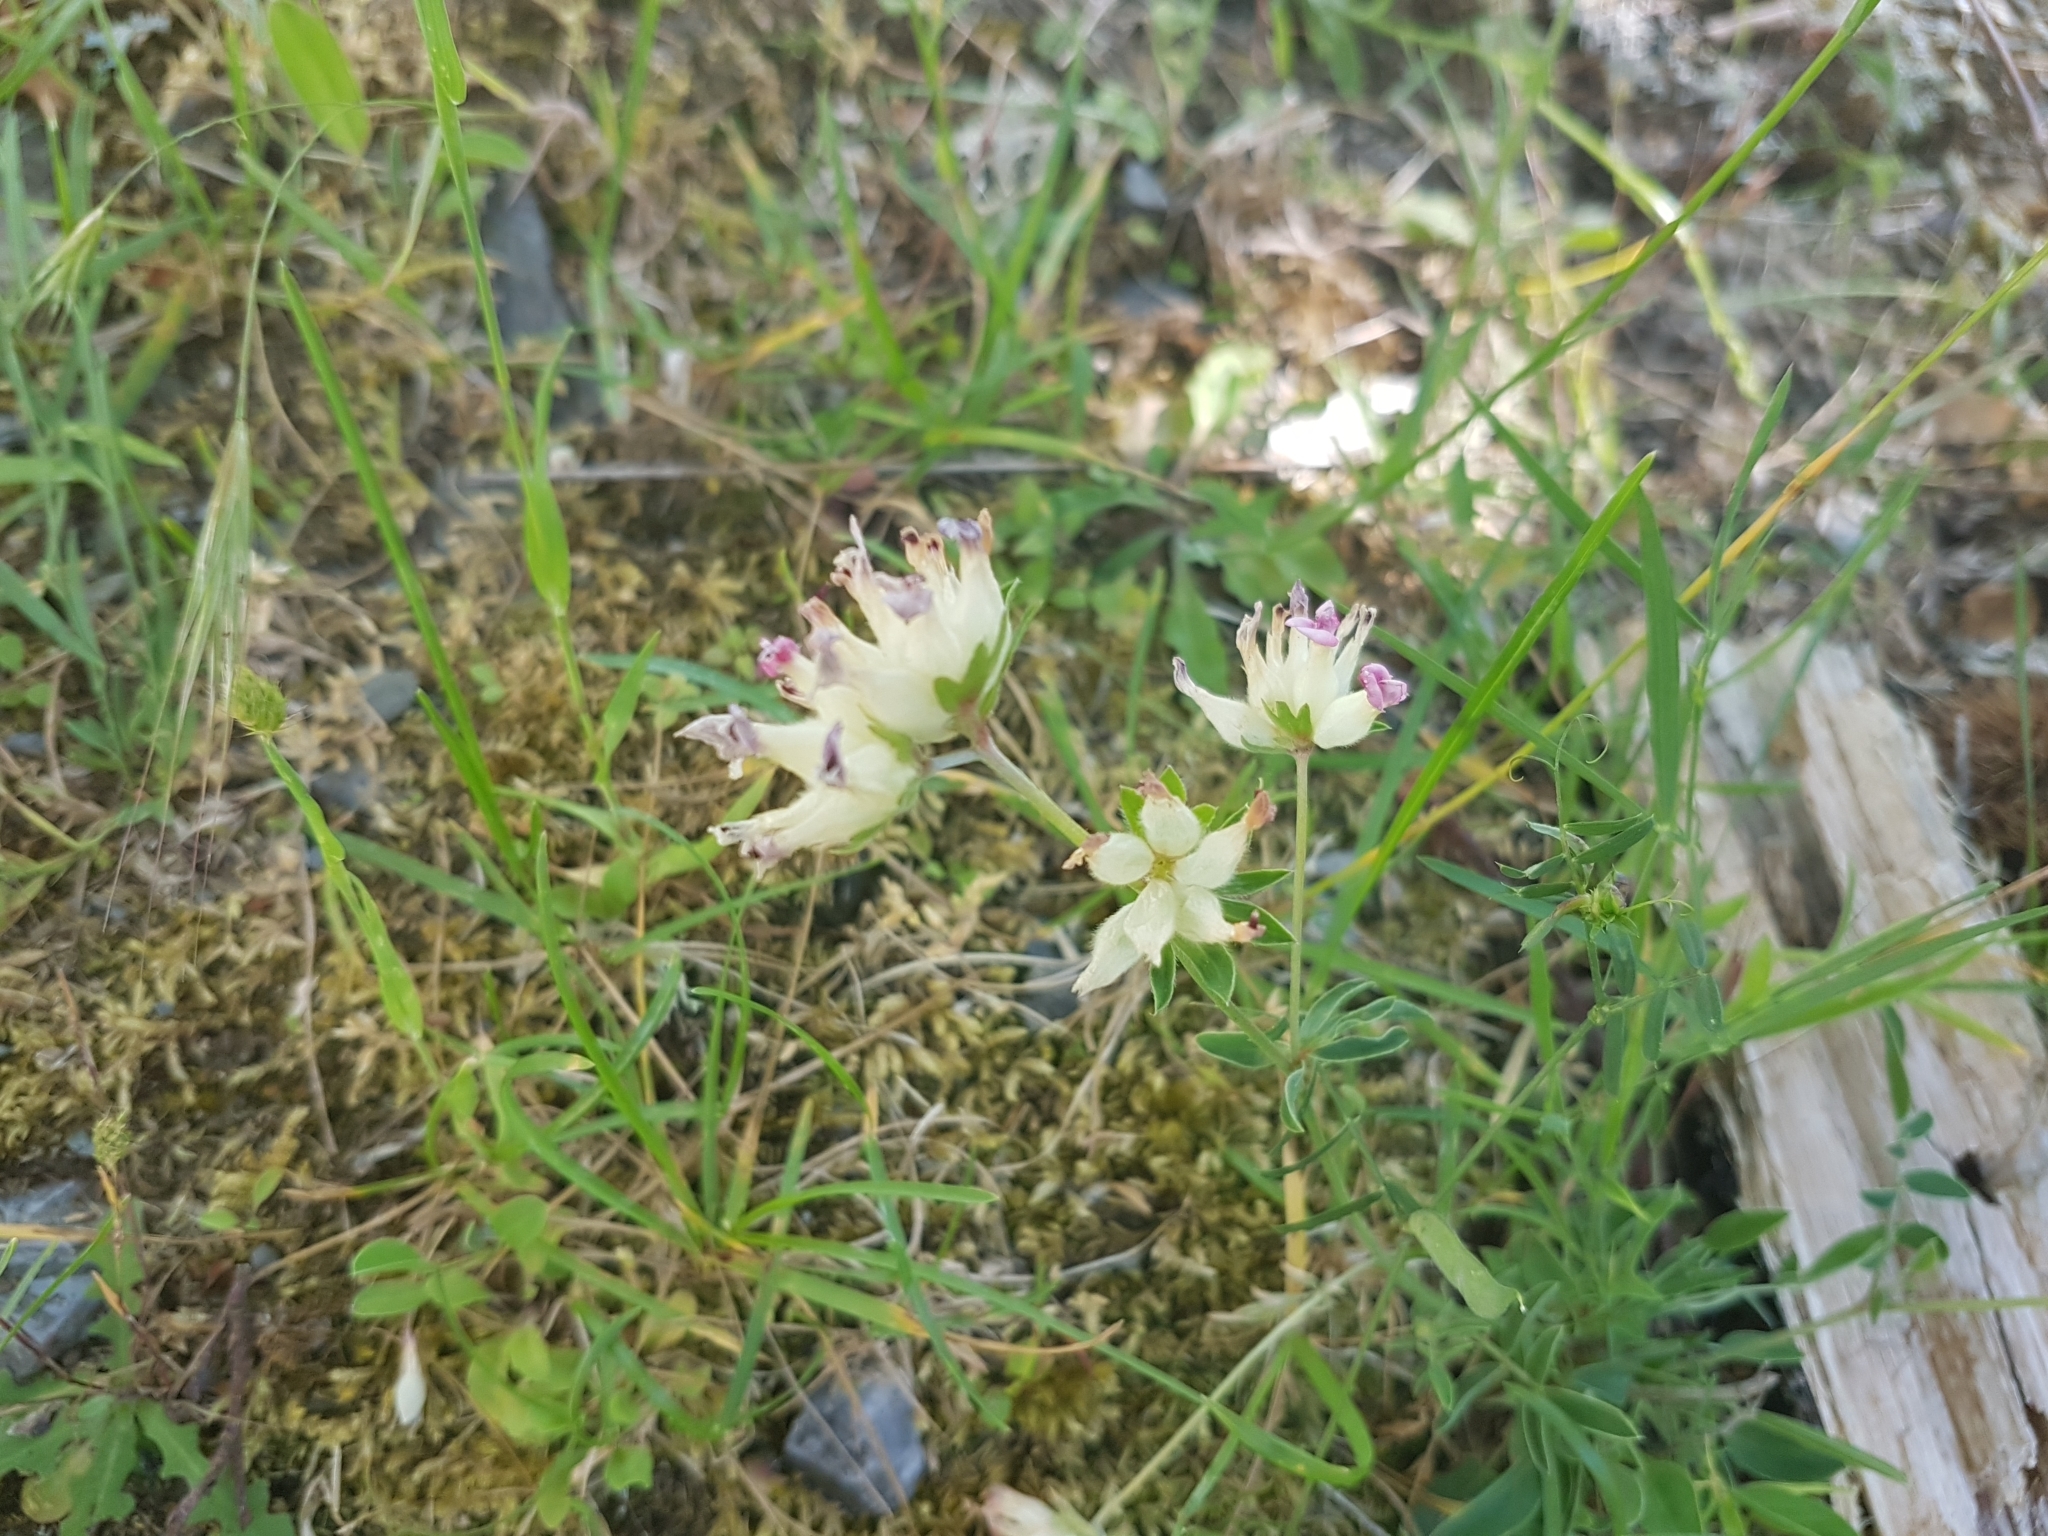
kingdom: Plantae
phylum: Tracheophyta
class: Magnoliopsida
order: Fabales
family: Fabaceae
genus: Anthyllis
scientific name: Anthyllis vulneraria
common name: Kidney vetch
